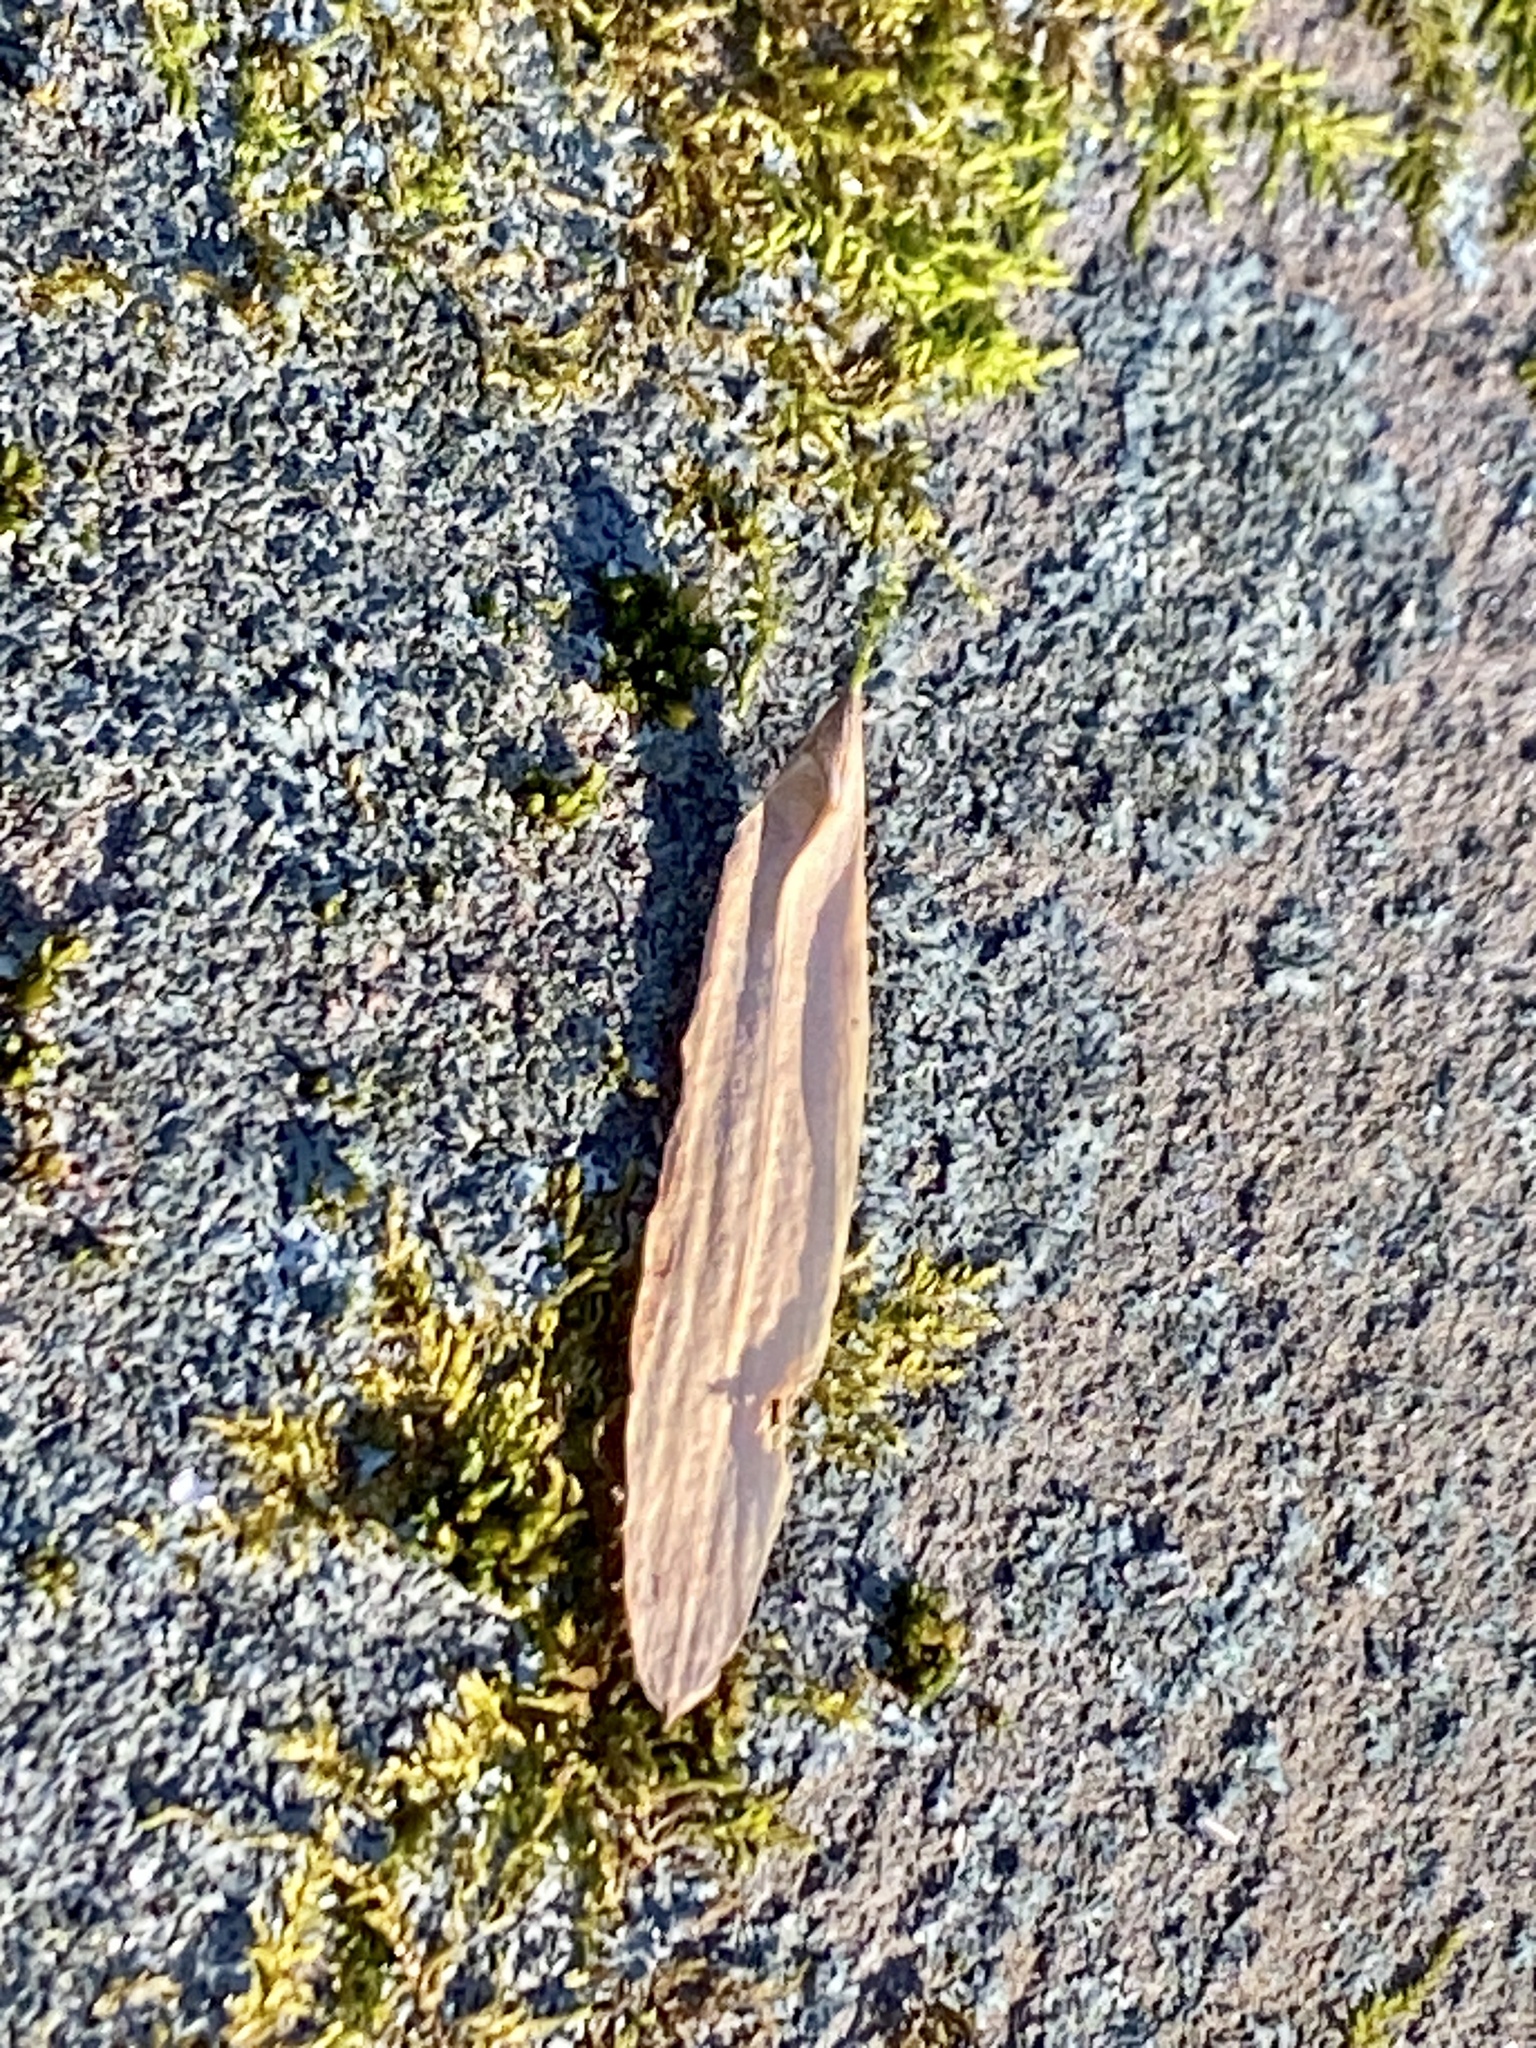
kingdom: Plantae
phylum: Tracheophyta
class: Magnoliopsida
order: Magnoliales
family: Magnoliaceae
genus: Liriodendron
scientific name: Liriodendron tulipifera
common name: Tulip tree
